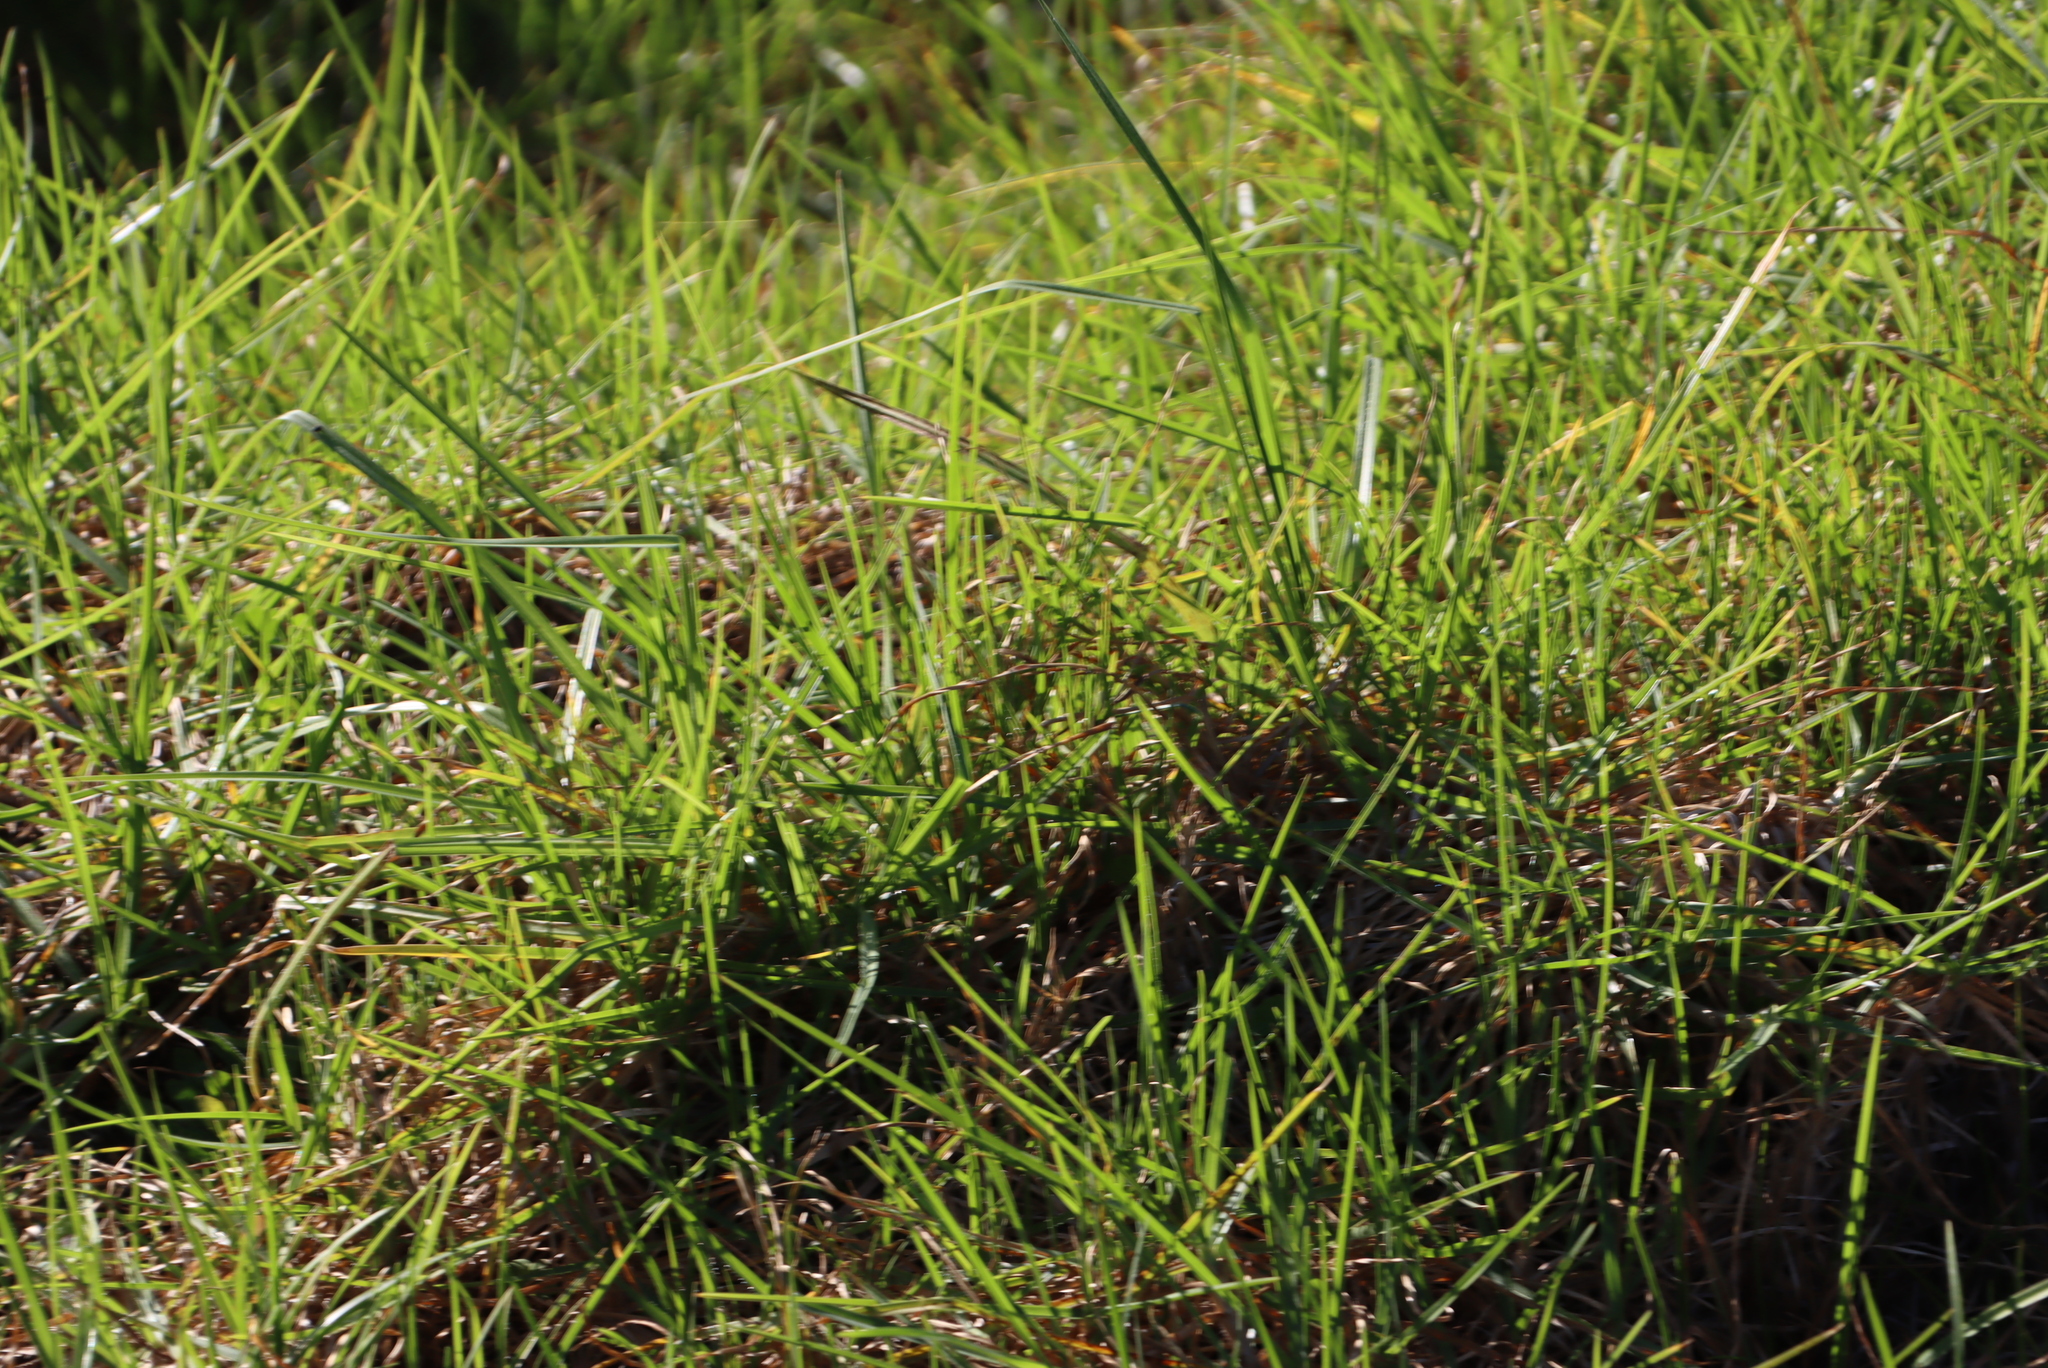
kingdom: Plantae
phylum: Tracheophyta
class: Liliopsida
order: Poales
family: Poaceae
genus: Cenchrus
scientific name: Cenchrus clandestinus
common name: Kikuyugrass
